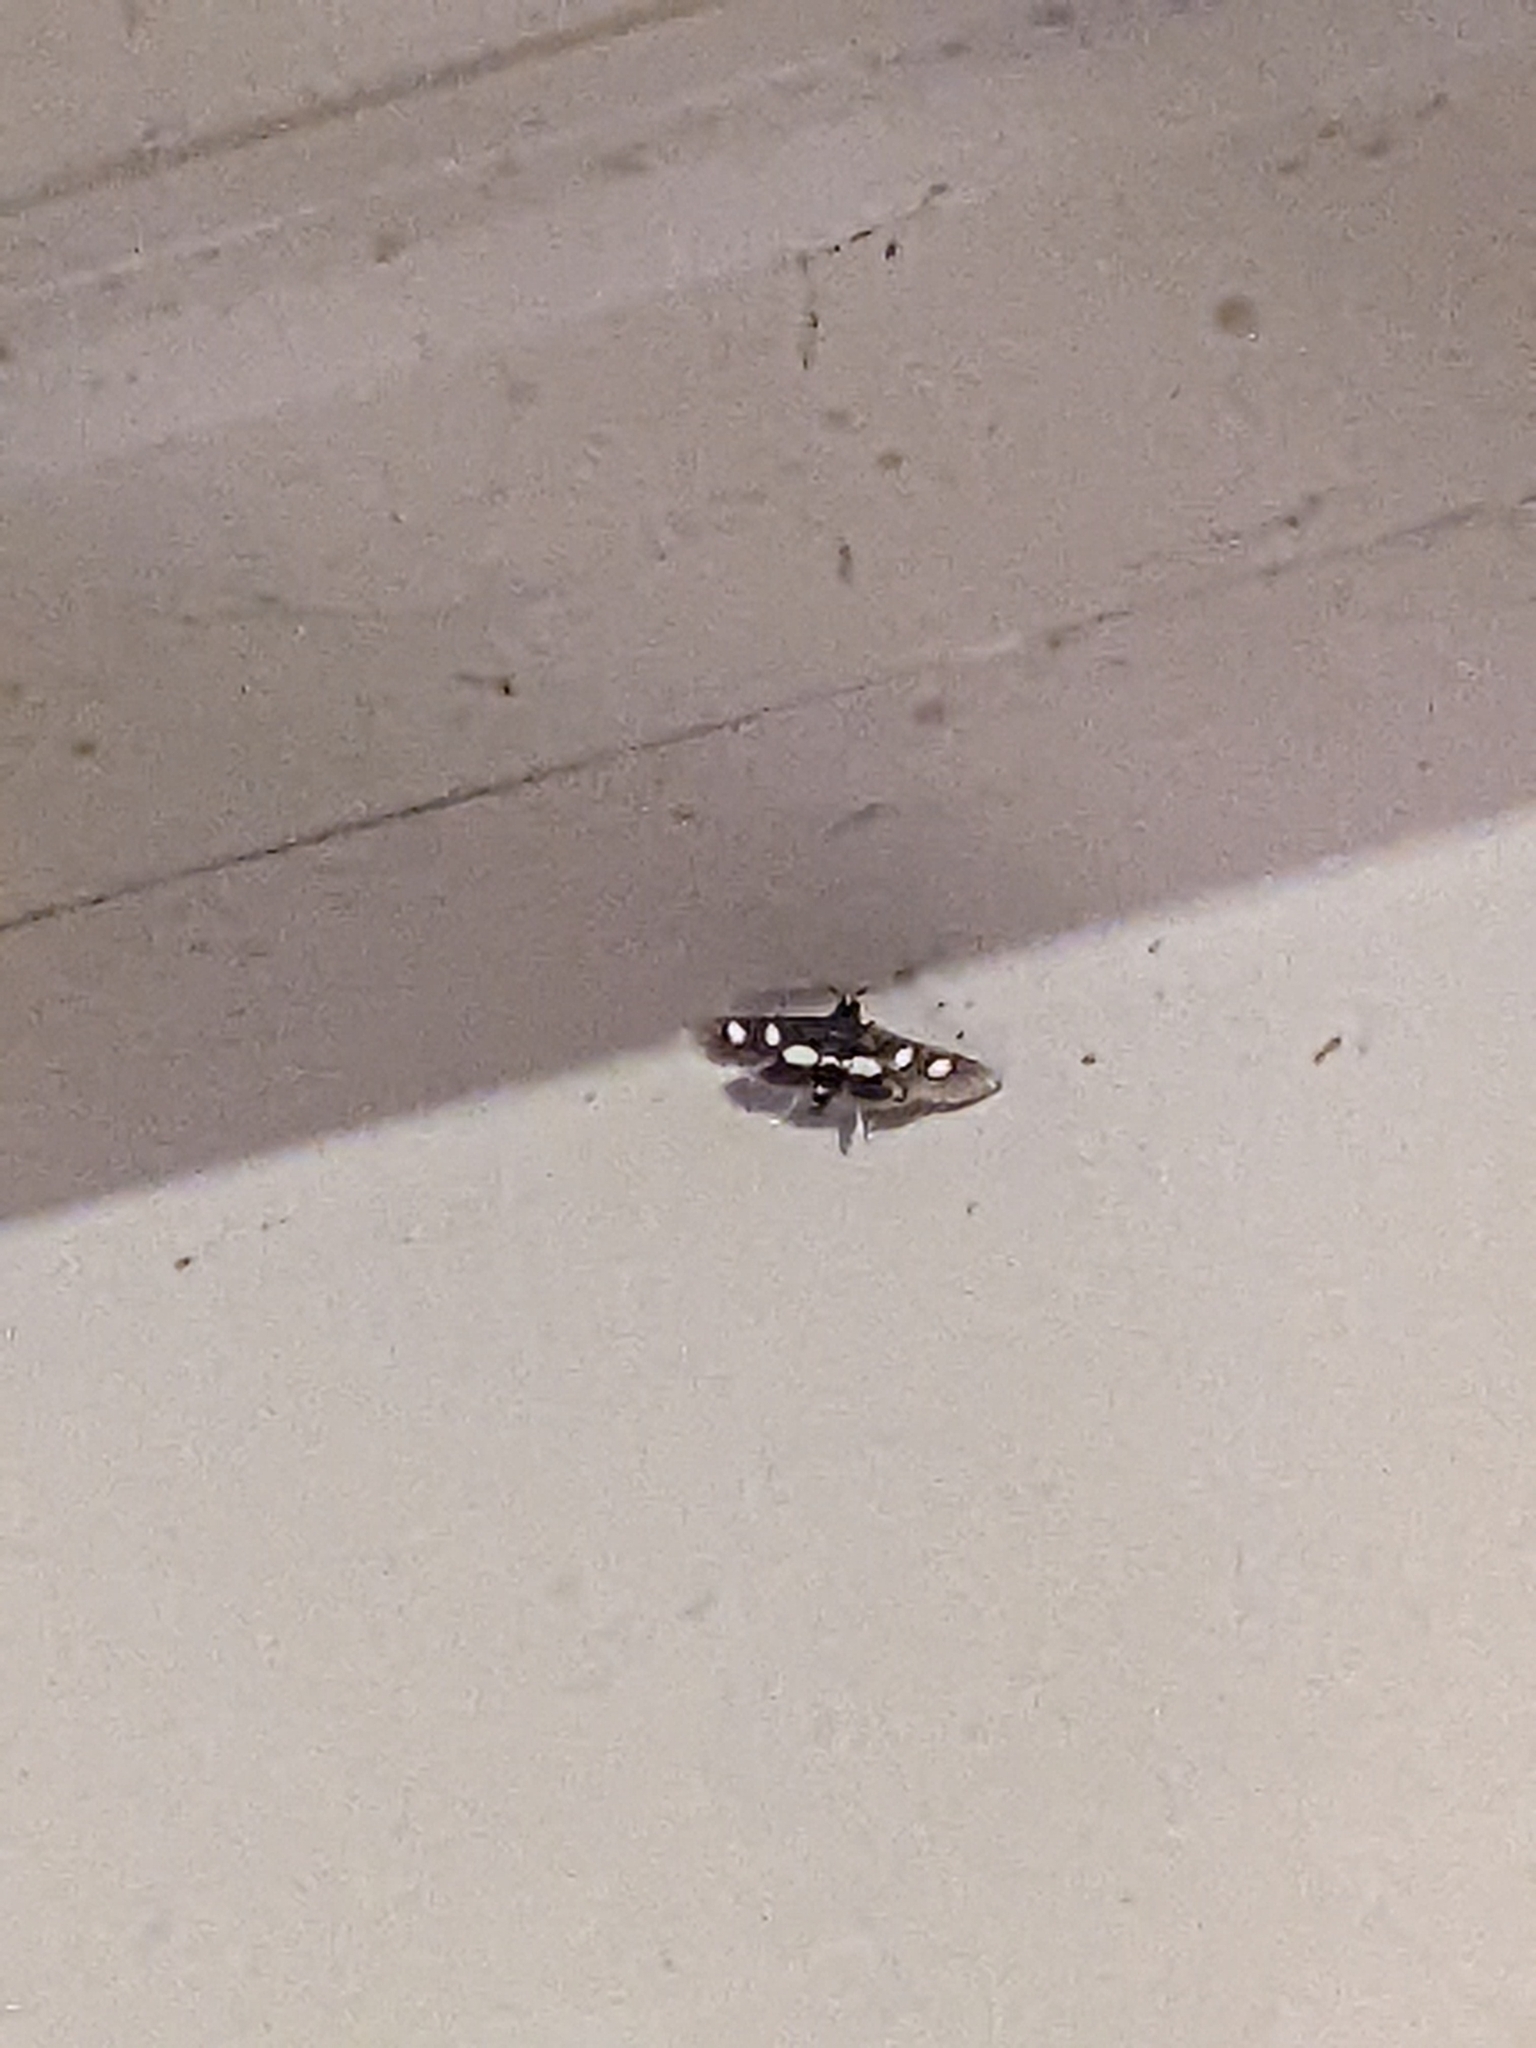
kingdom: Animalia
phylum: Arthropoda
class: Insecta
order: Lepidoptera
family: Crambidae
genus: Desmia
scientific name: Desmia
